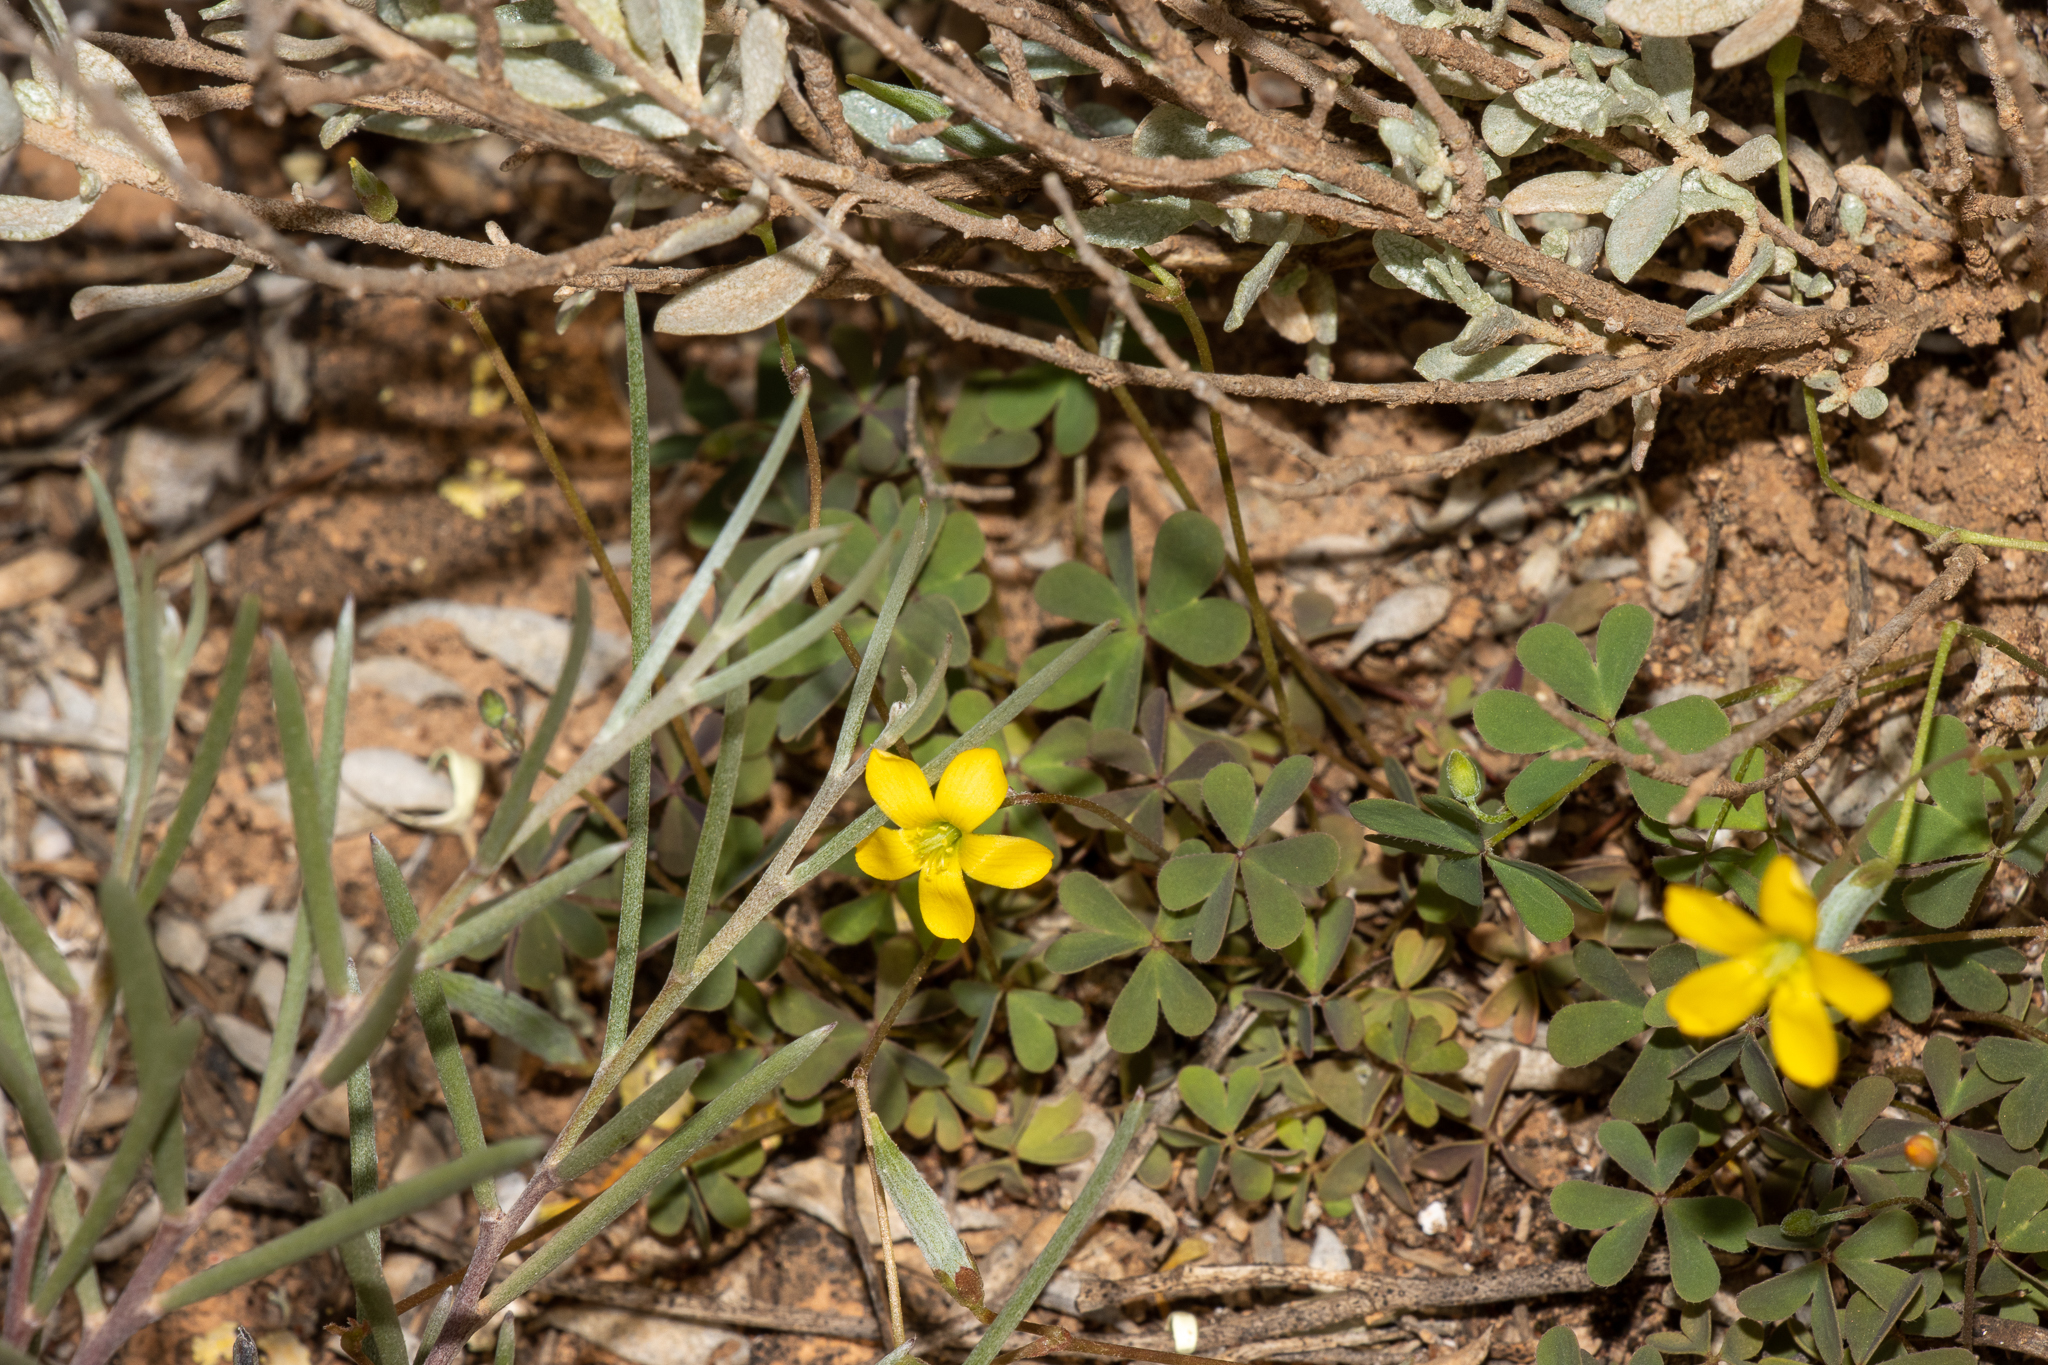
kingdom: Plantae
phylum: Tracheophyta
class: Magnoliopsida
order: Oxalidales
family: Oxalidaceae
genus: Oxalis
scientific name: Oxalis perennans
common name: Woody-rooted yellow-sorrel
